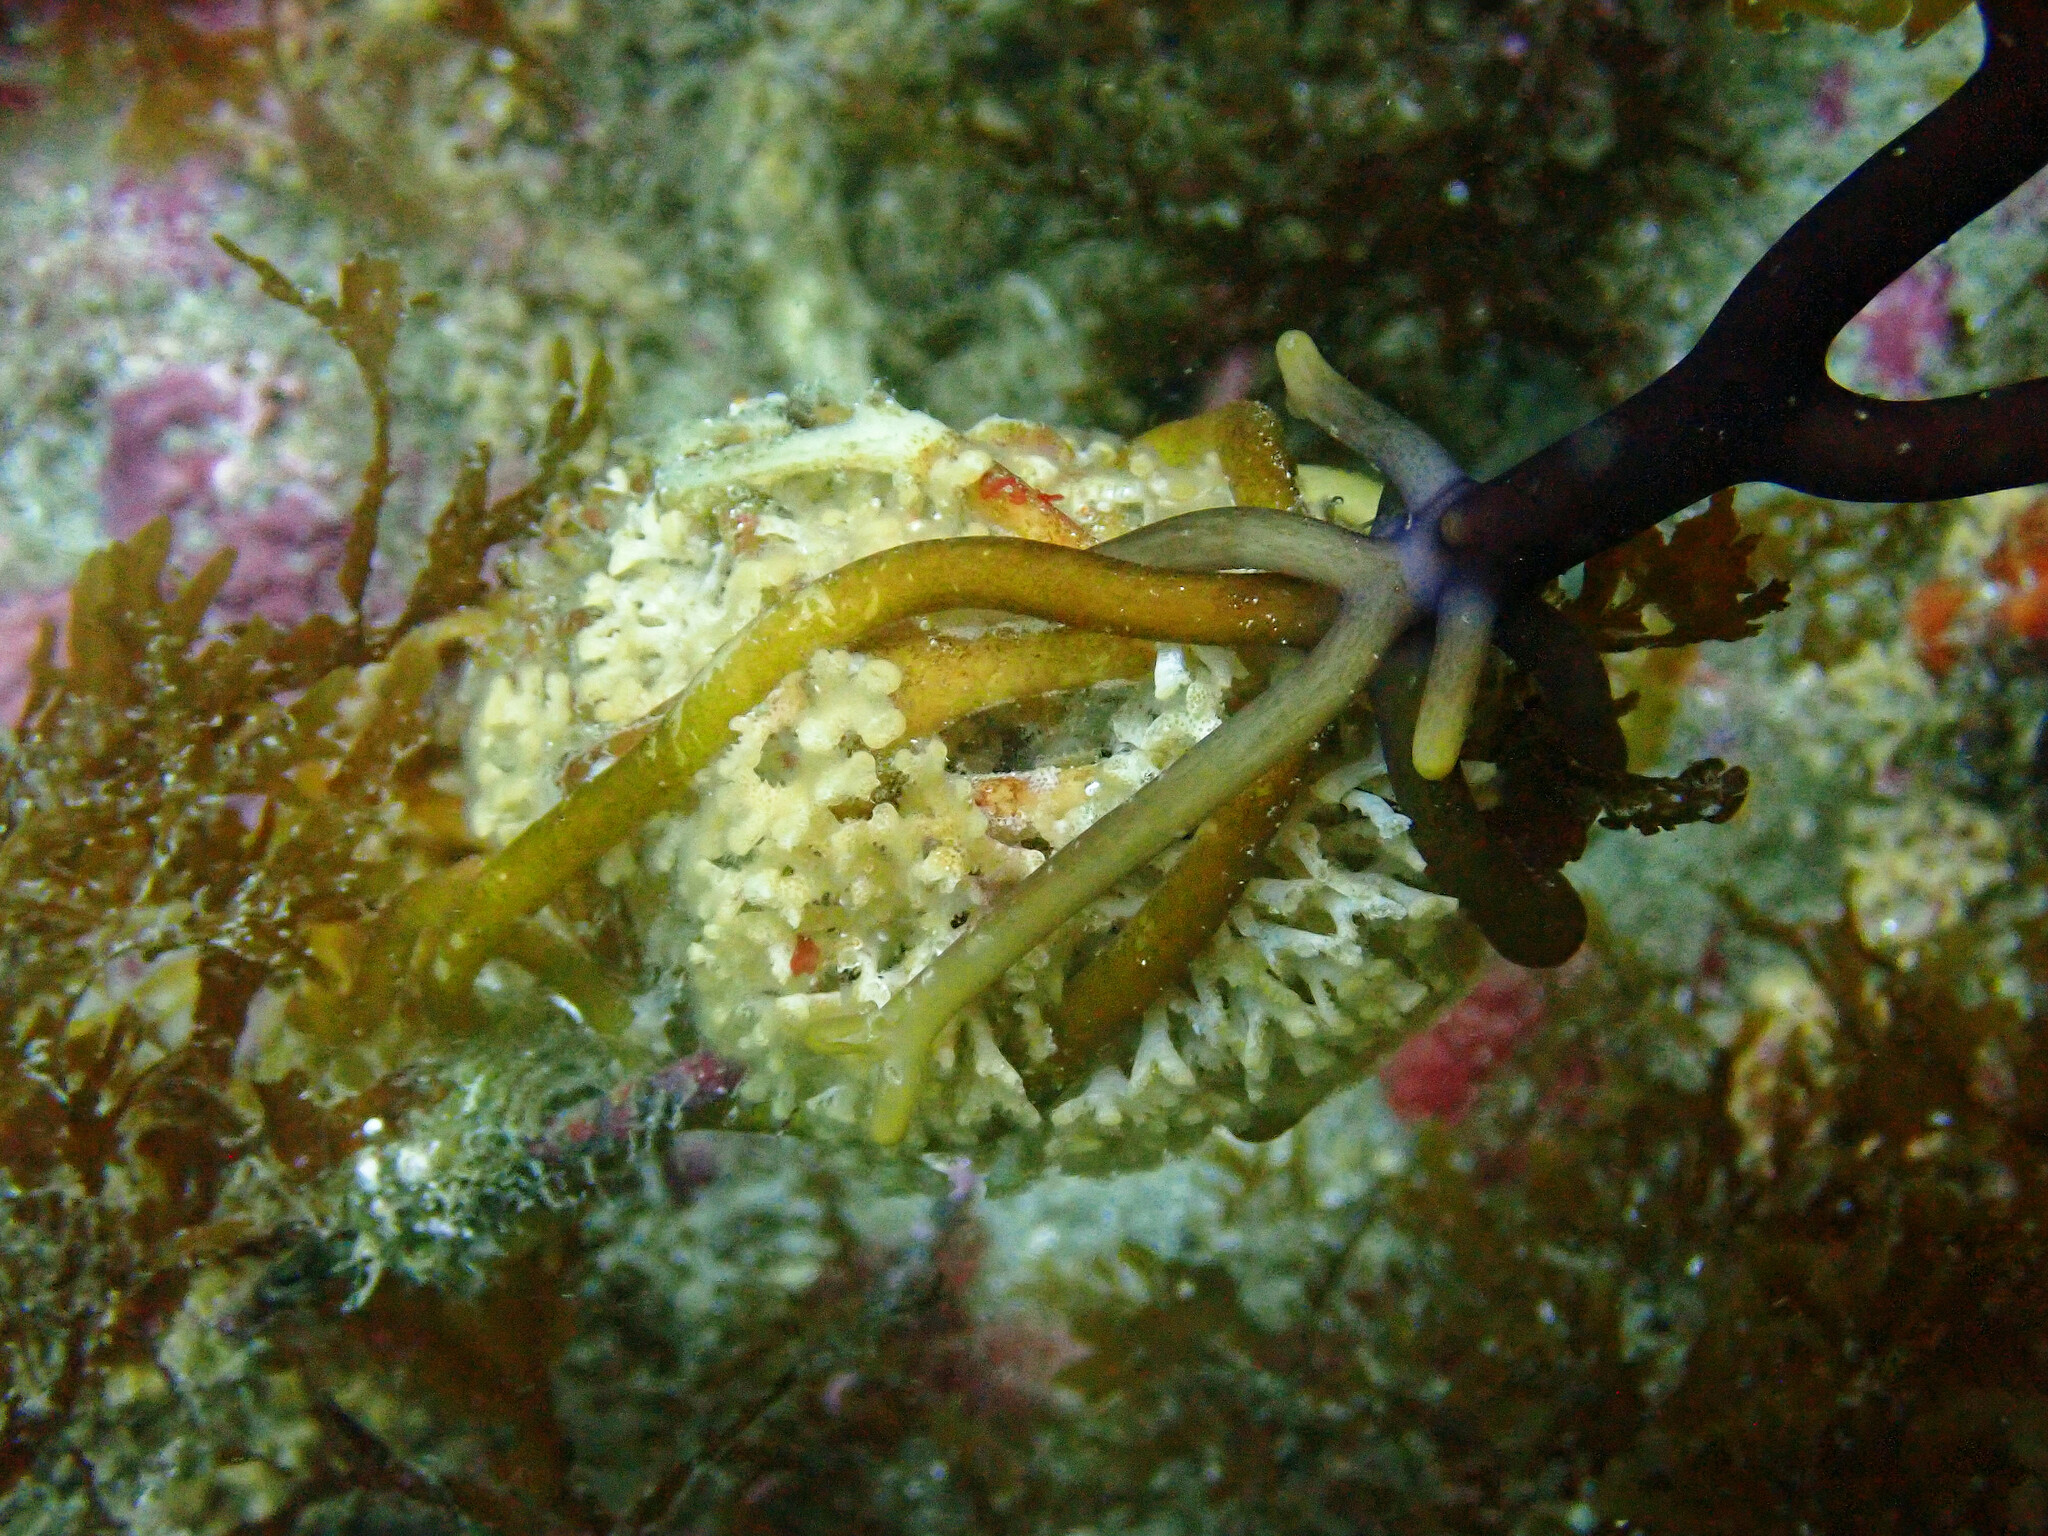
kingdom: Animalia
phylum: Bryozoa
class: Stenolaemata
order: Cyclostomatida
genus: Diaperoforma
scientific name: Diaperoforma californica
